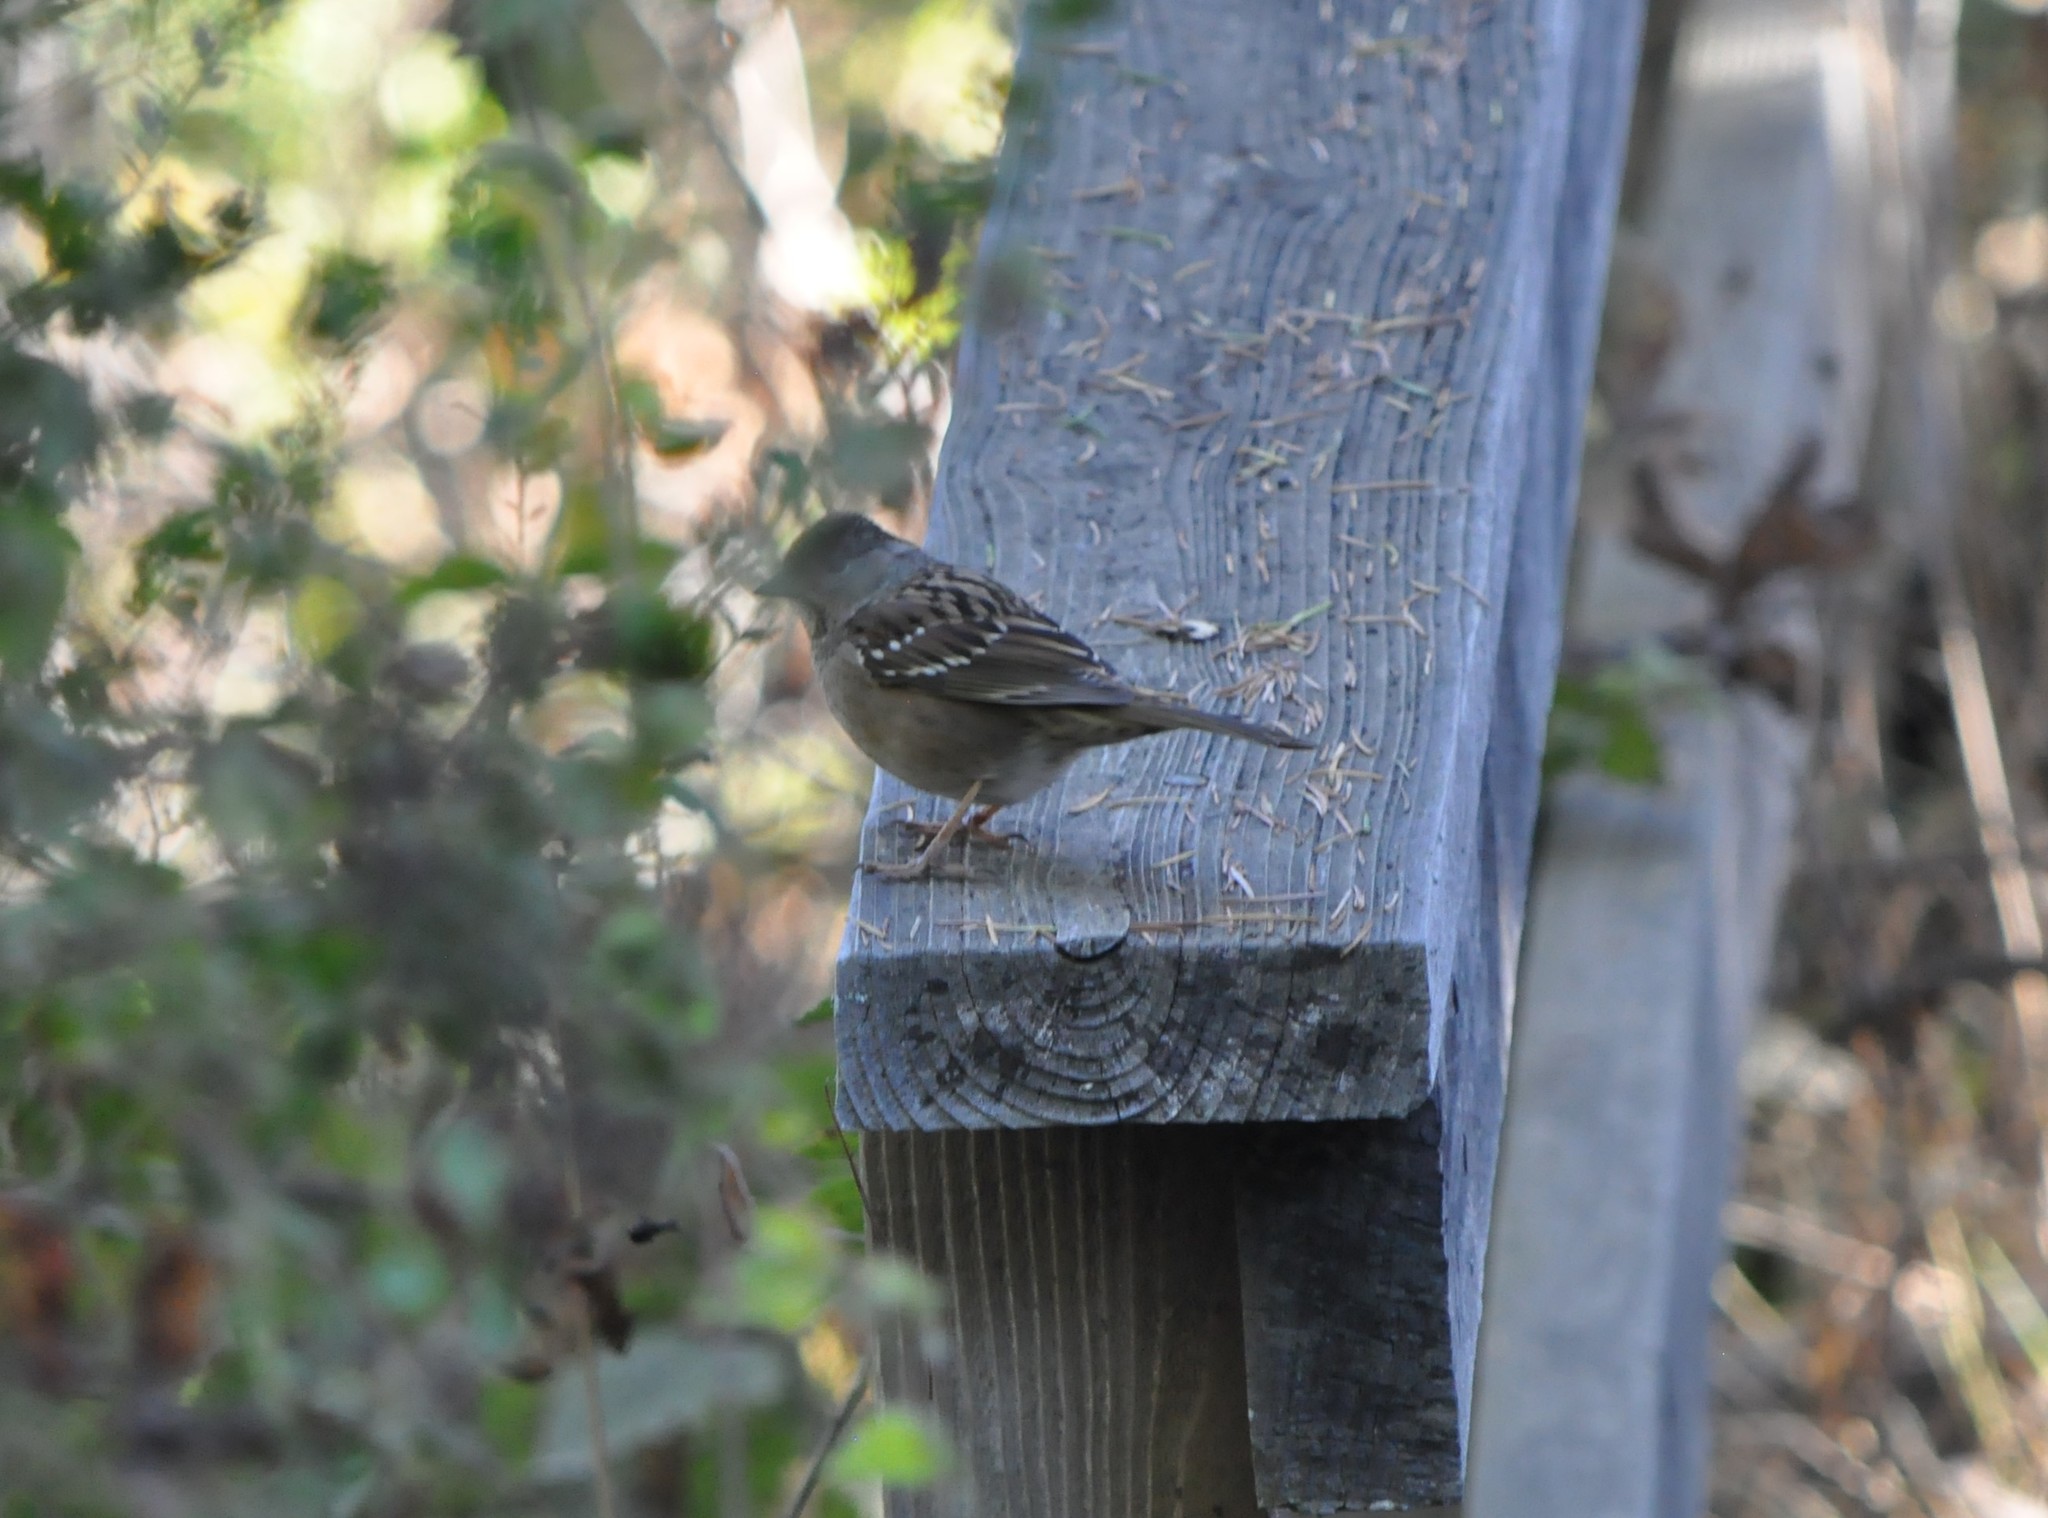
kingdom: Animalia
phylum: Chordata
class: Aves
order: Passeriformes
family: Passerellidae
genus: Zonotrichia
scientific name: Zonotrichia atricapilla
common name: Golden-crowned sparrow
